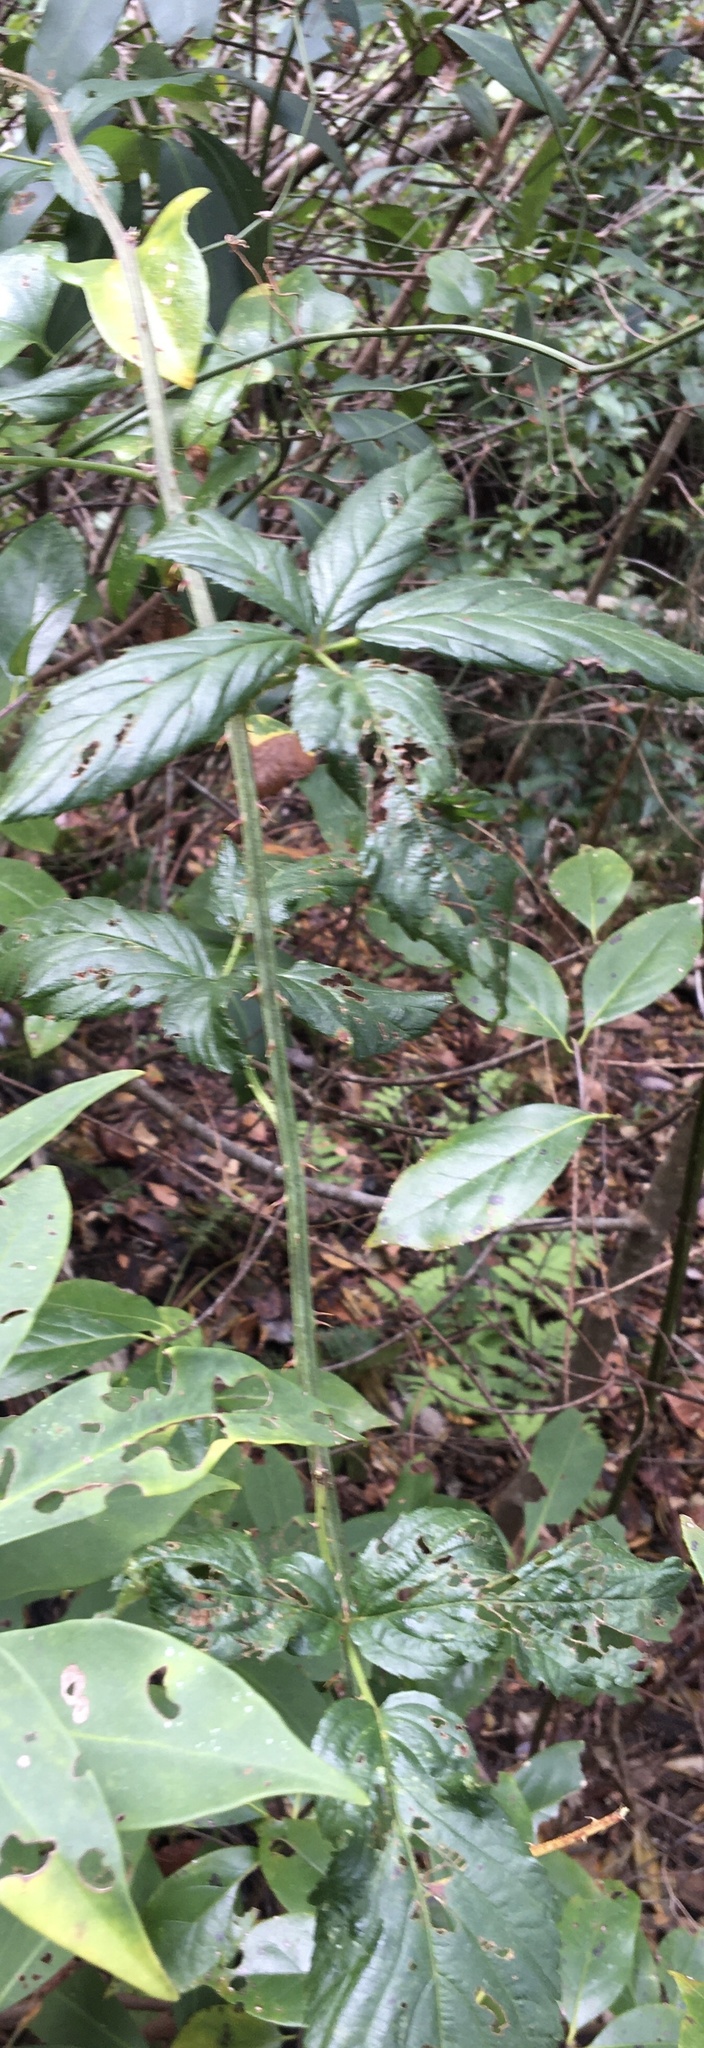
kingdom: Plantae
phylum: Tracheophyta
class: Magnoliopsida
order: Rosales
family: Rosaceae
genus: Rubus
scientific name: Rubus pensilvanicus
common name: Pennsylvania blackberry
